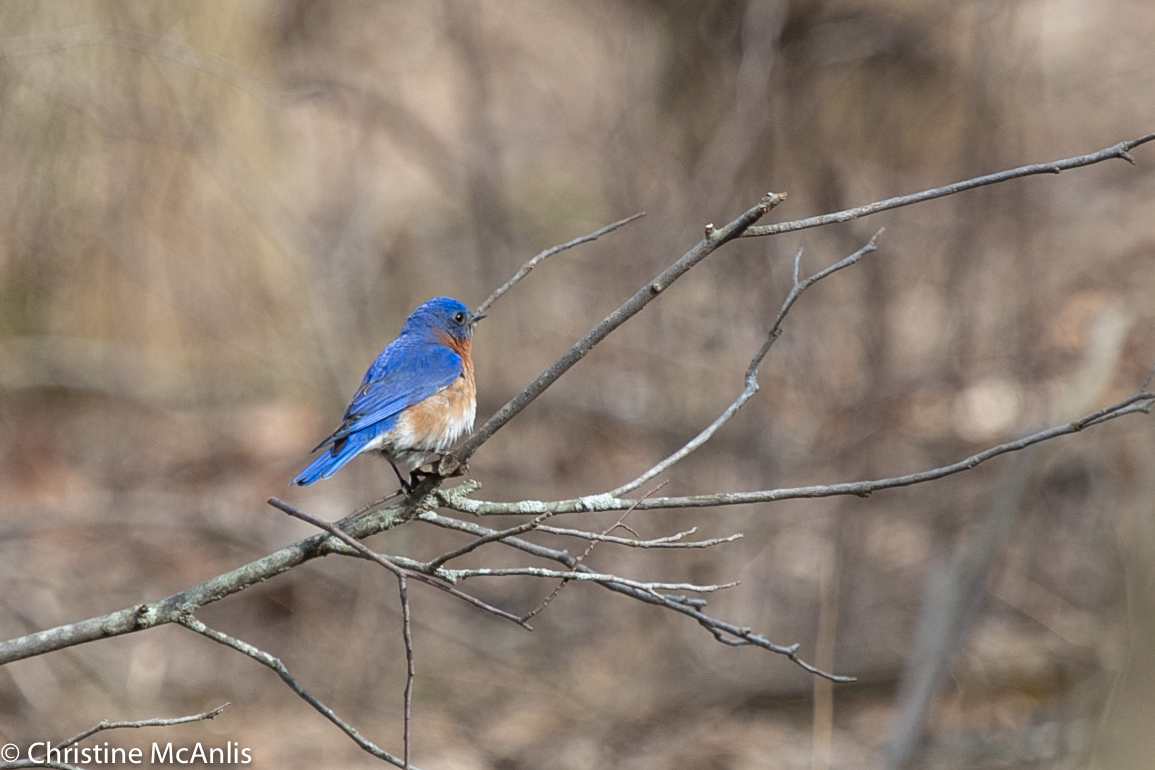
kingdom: Animalia
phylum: Chordata
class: Aves
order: Passeriformes
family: Turdidae
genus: Sialia
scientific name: Sialia sialis
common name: Eastern bluebird
